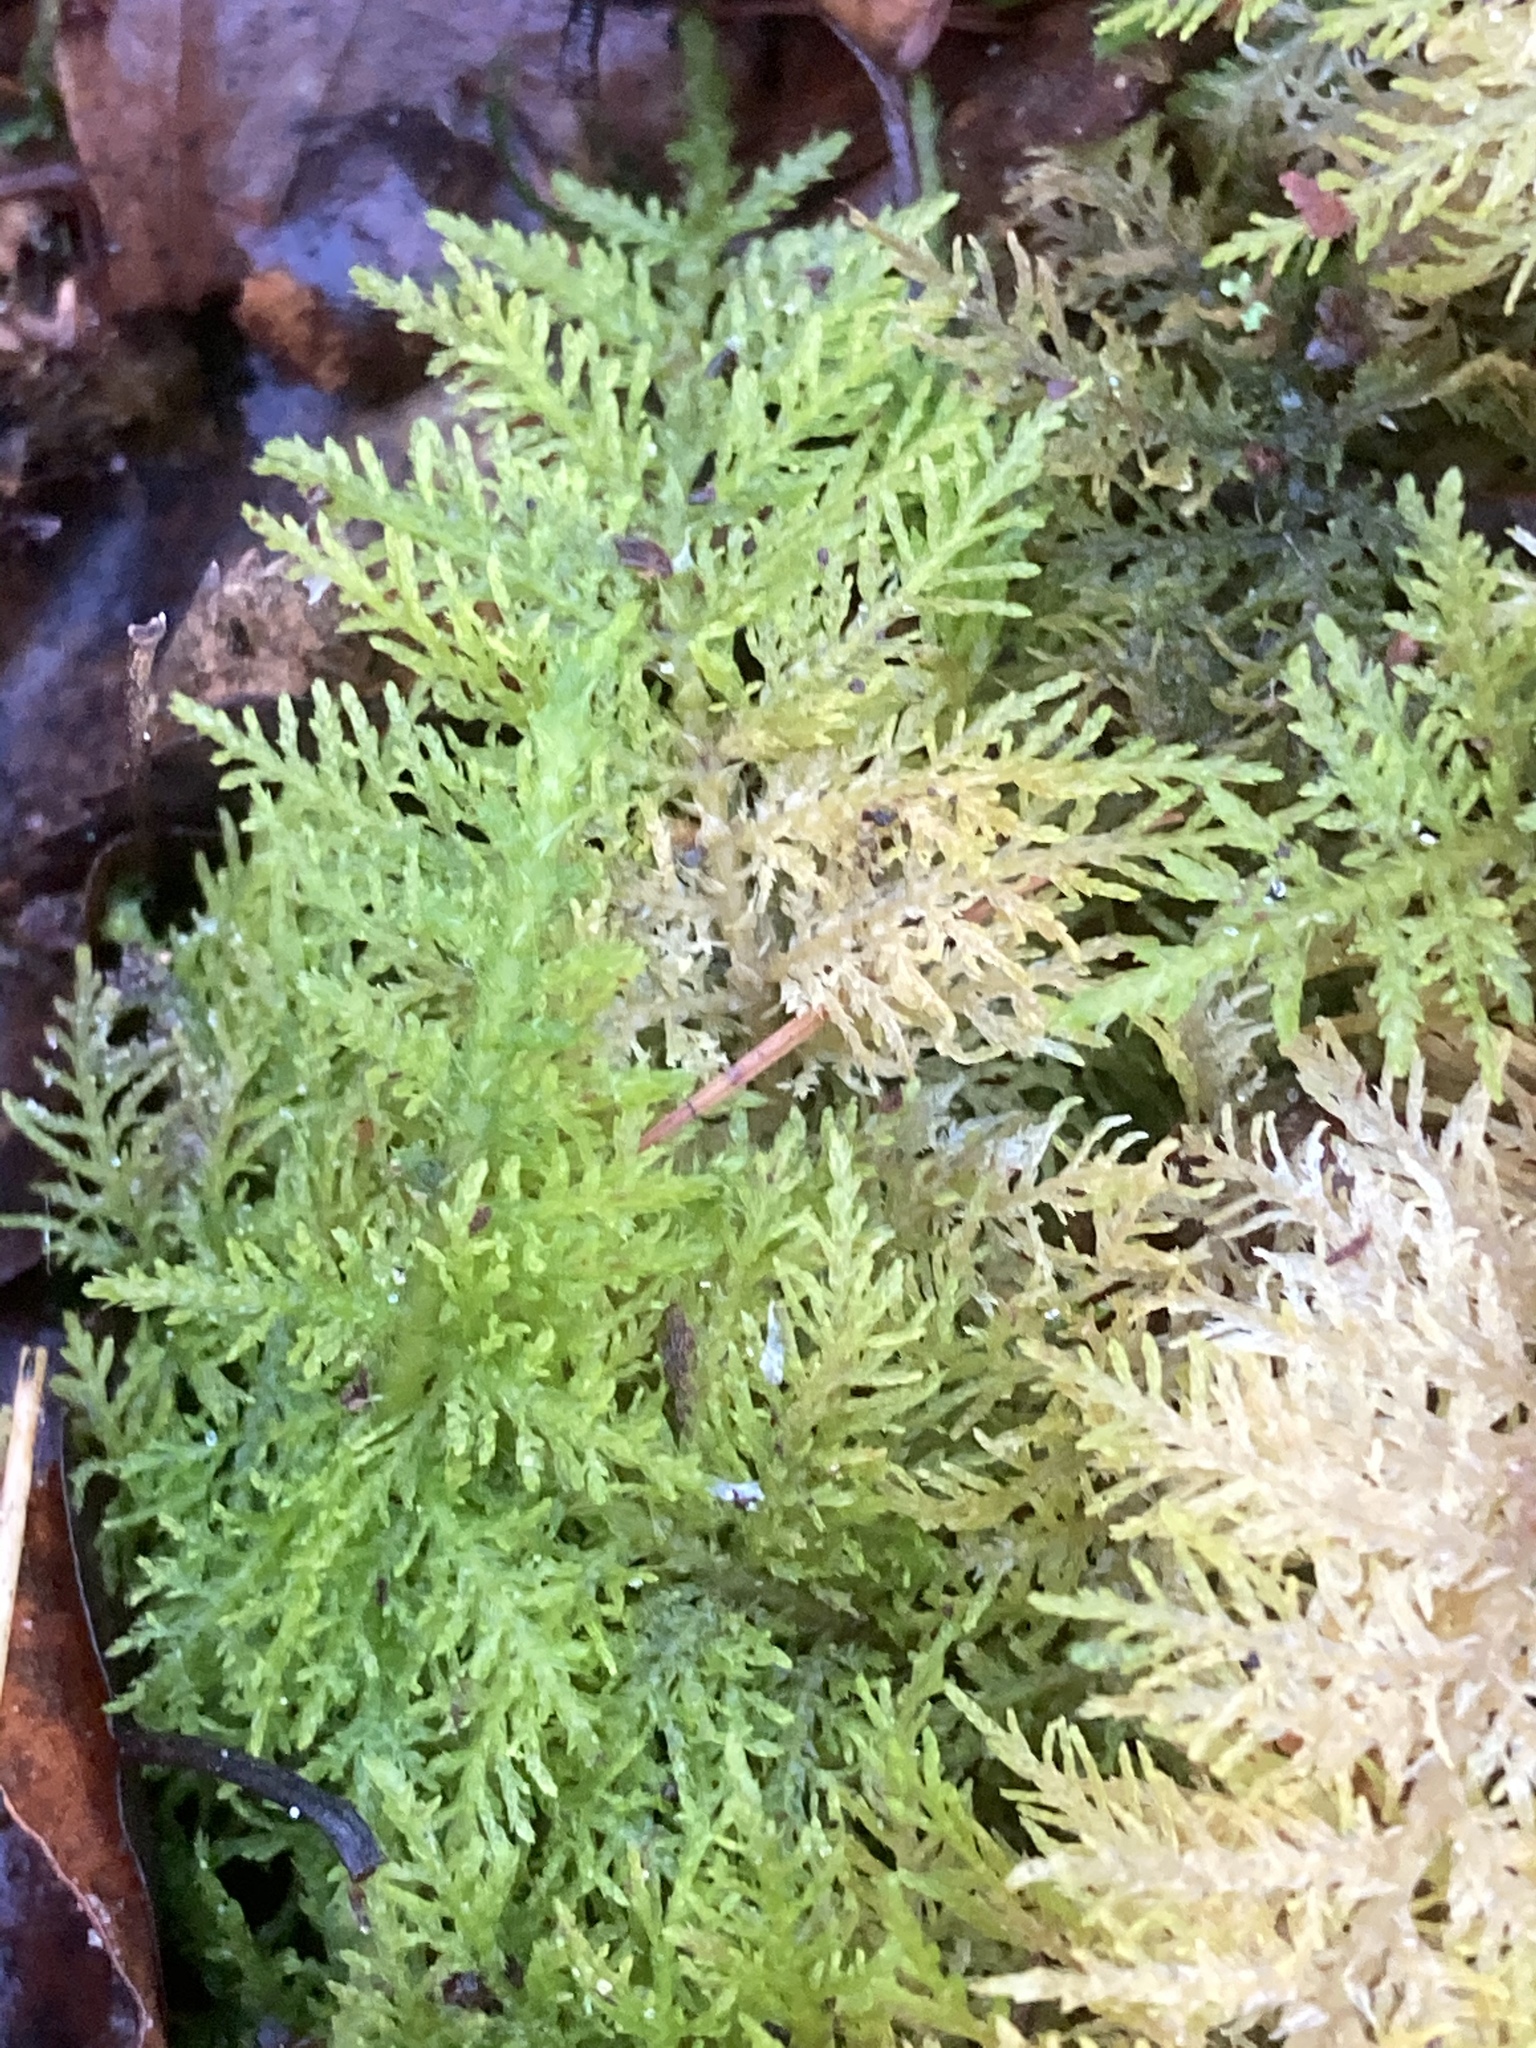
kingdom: Plantae
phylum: Bryophyta
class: Bryopsida
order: Hypnales
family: Thuidiaceae
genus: Thuidium
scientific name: Thuidium tamariscinum
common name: Common tamarisk-moss
